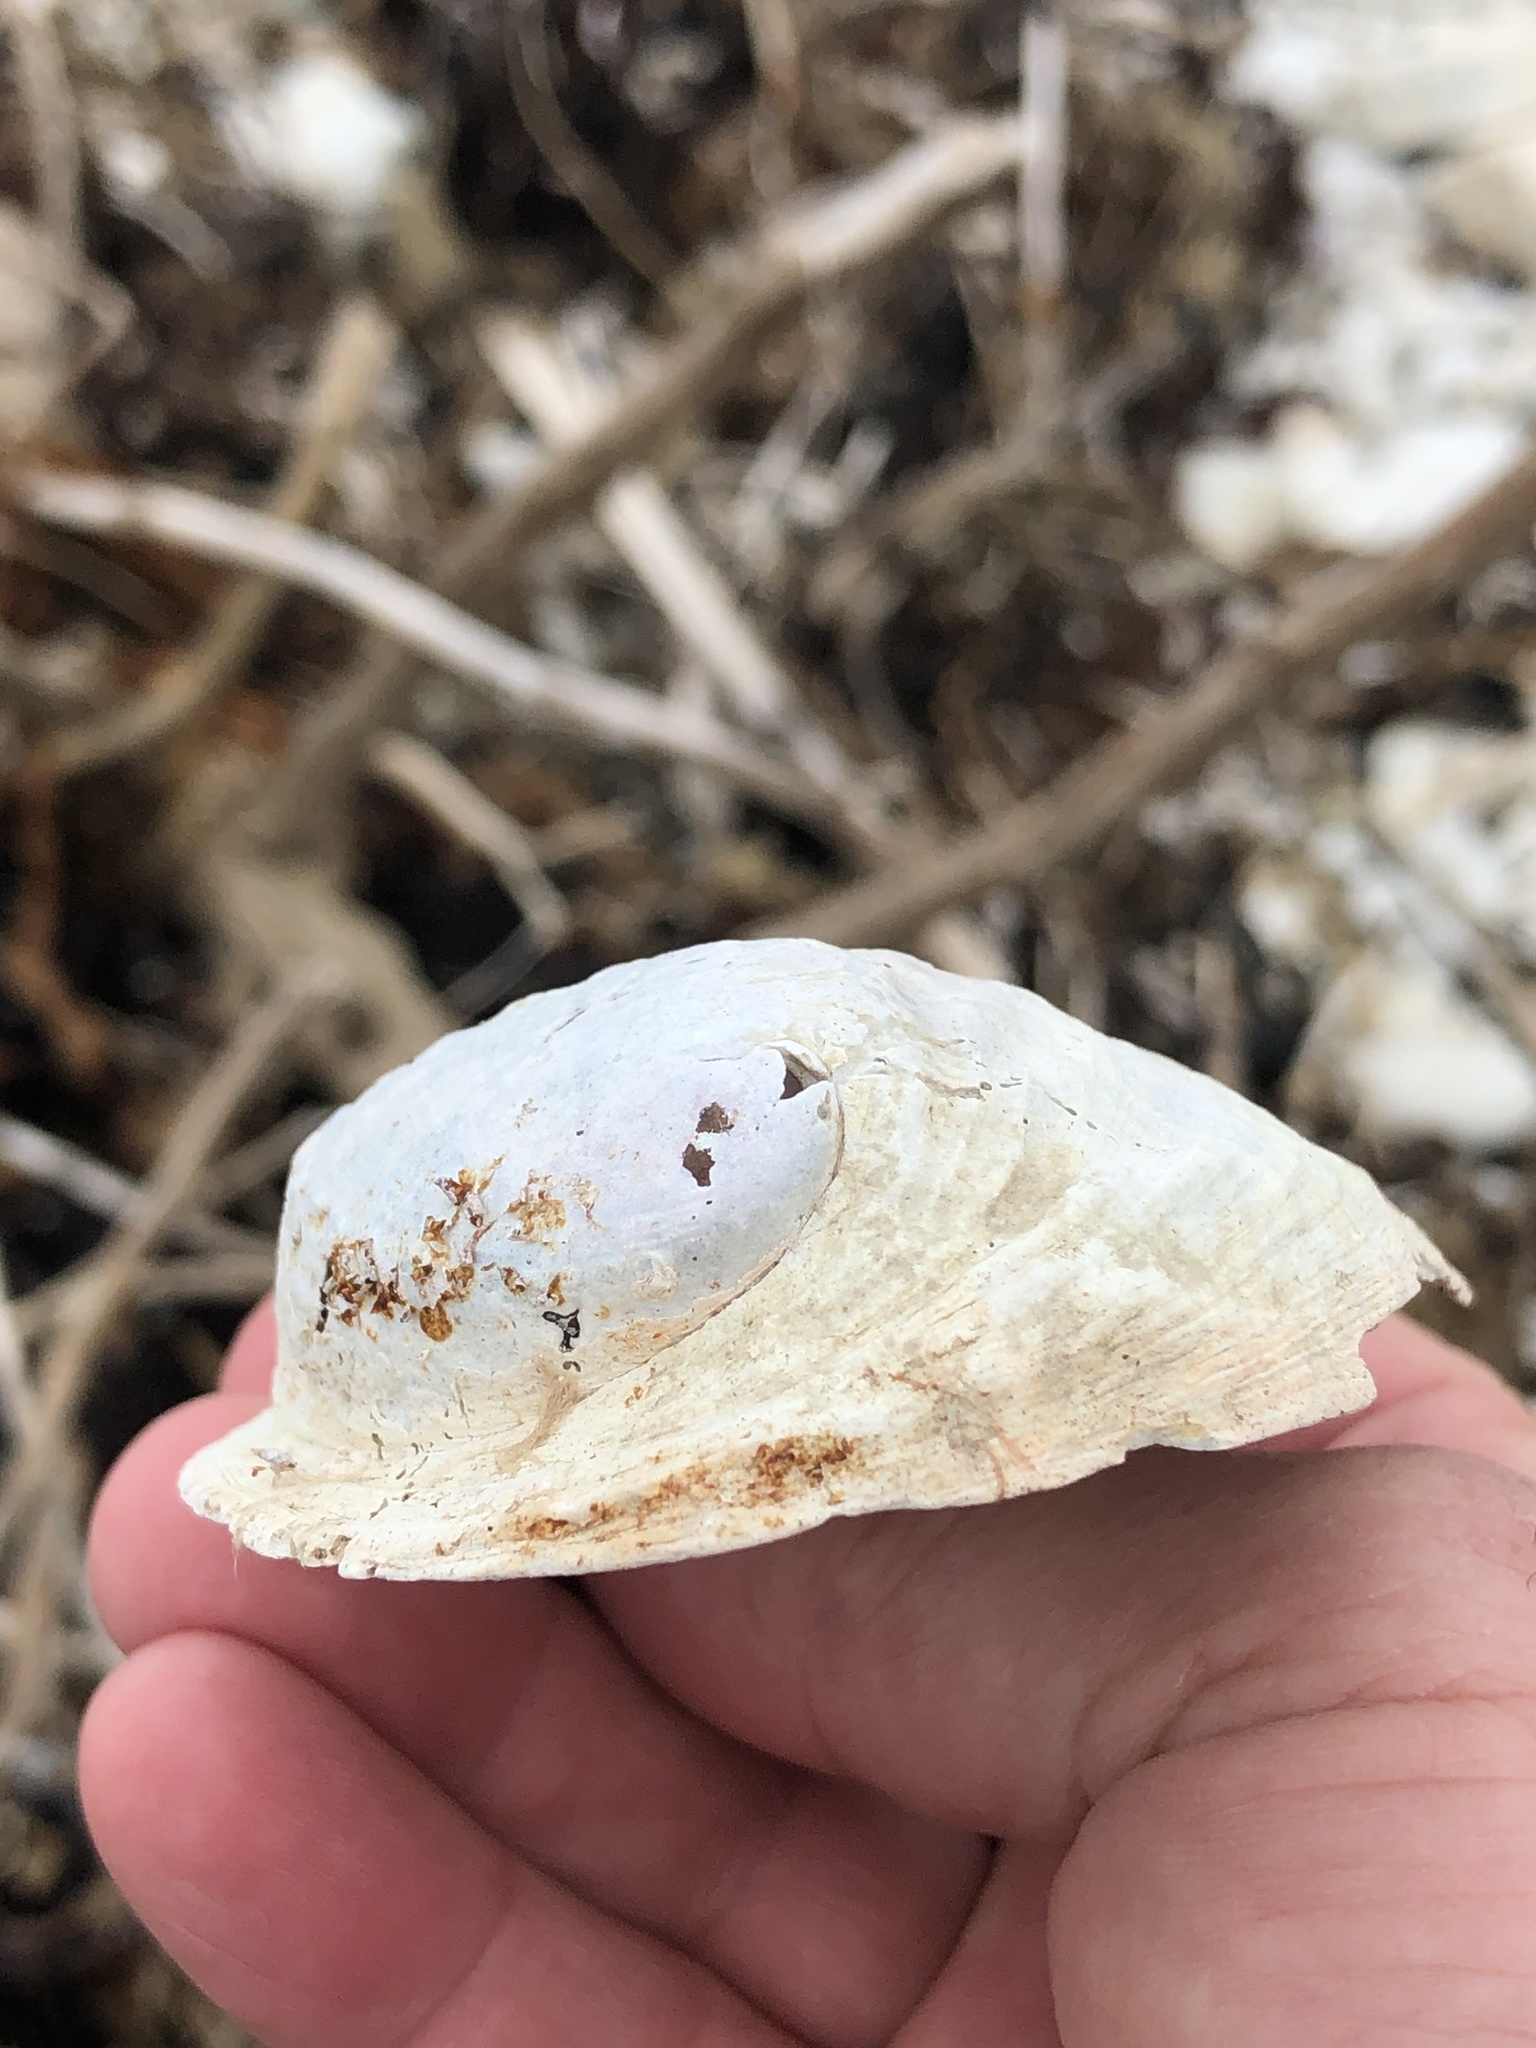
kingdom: Animalia
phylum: Mollusca
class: Gastropoda
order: Lepetellida
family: Haliotidae
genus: Haliotis
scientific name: Haliotis iris
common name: Abalone
